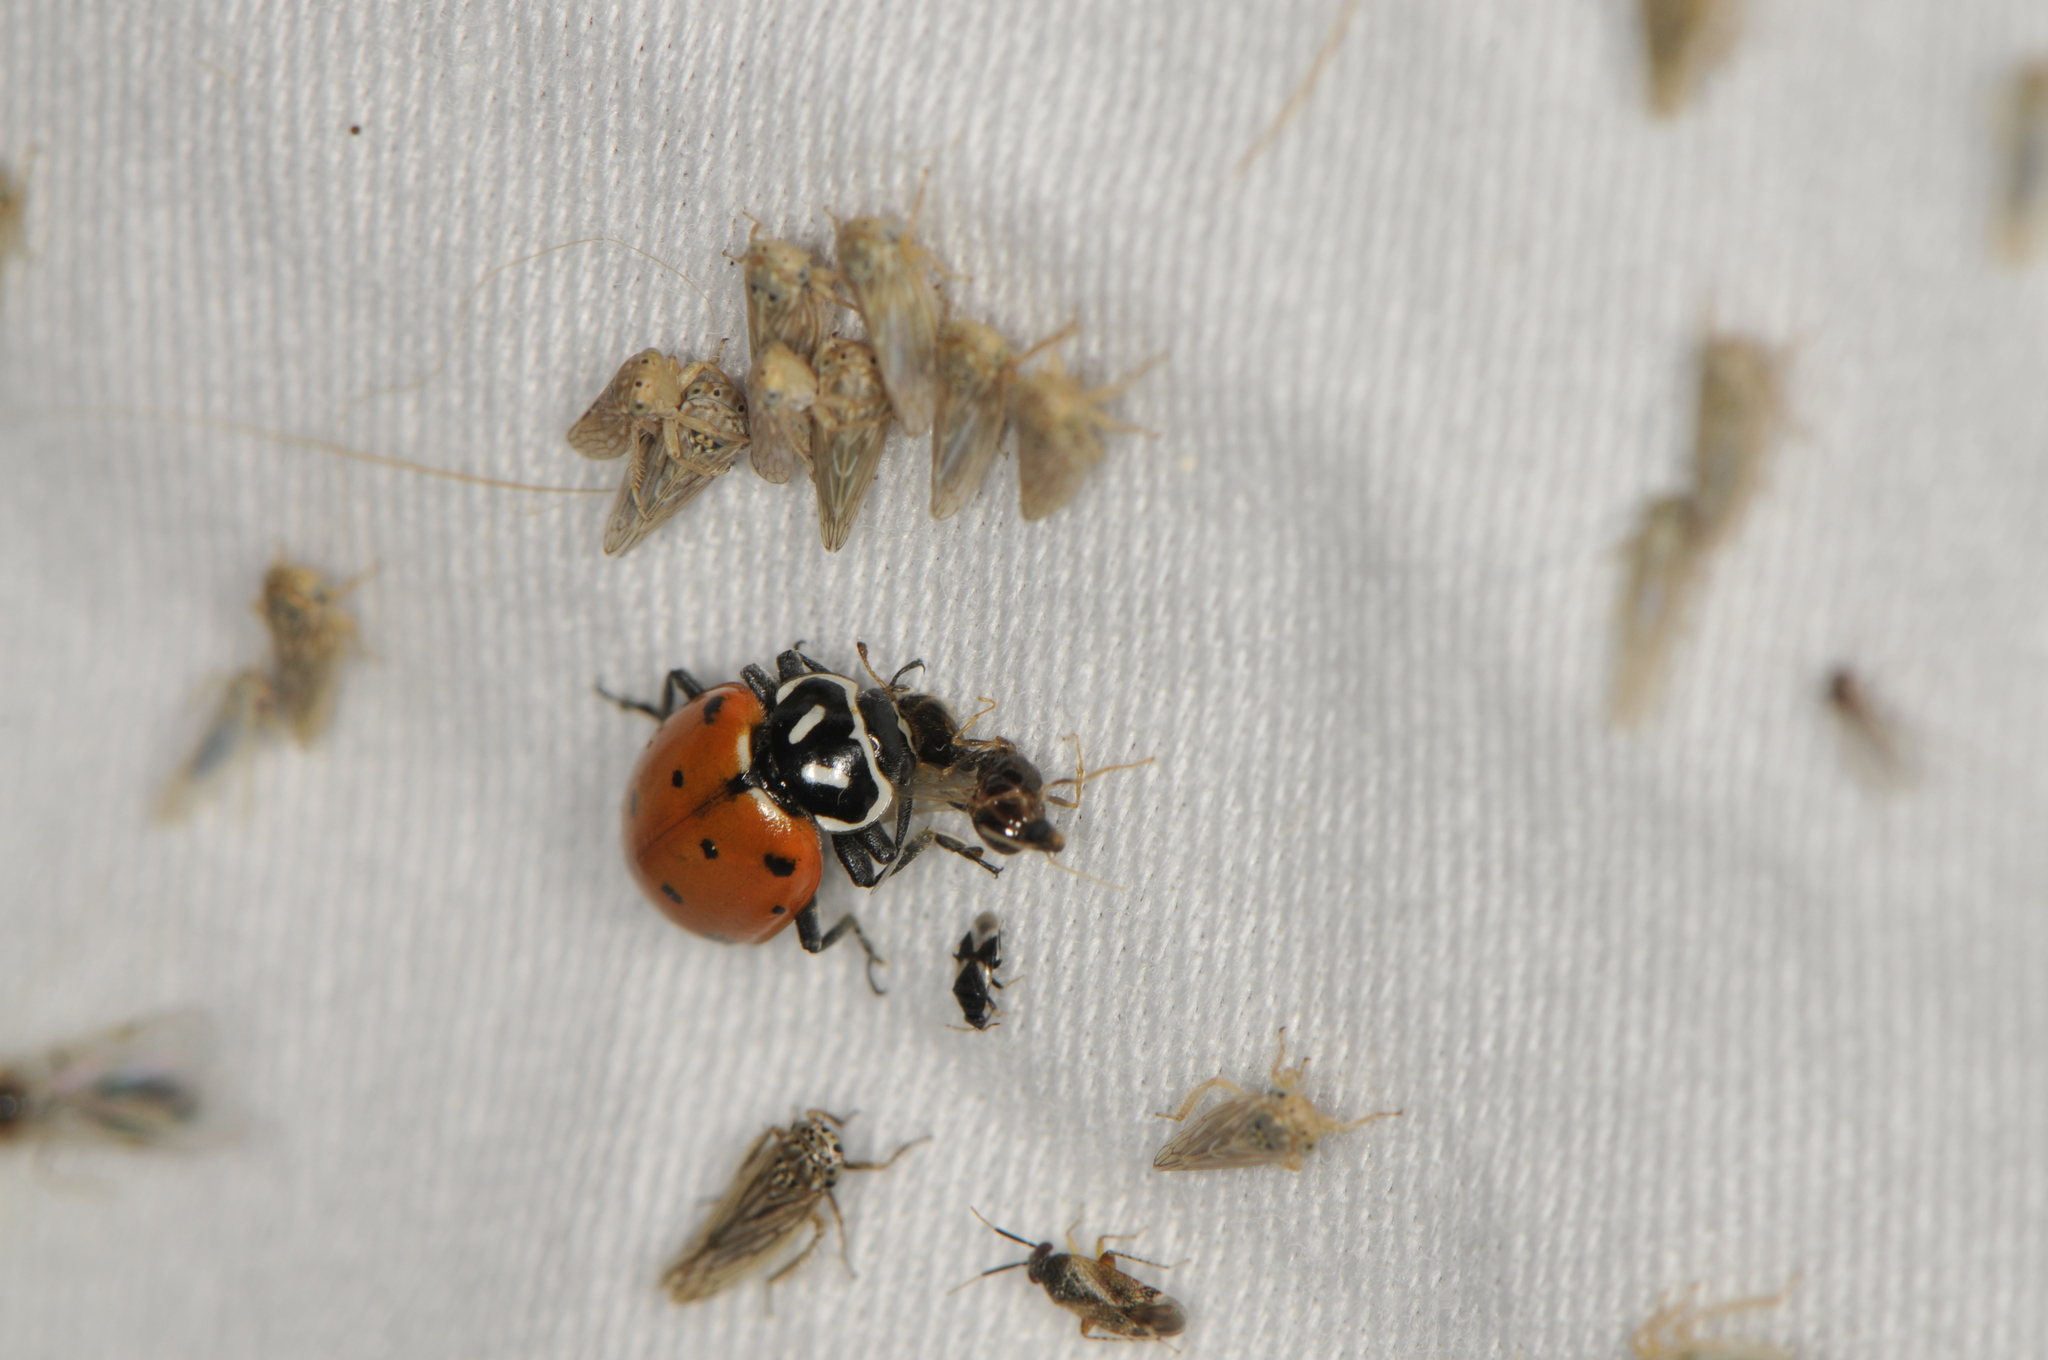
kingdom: Animalia
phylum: Arthropoda
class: Insecta
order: Coleoptera
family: Coccinellidae
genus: Hippodamia
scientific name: Hippodamia convergens
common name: Convergent lady beetle
